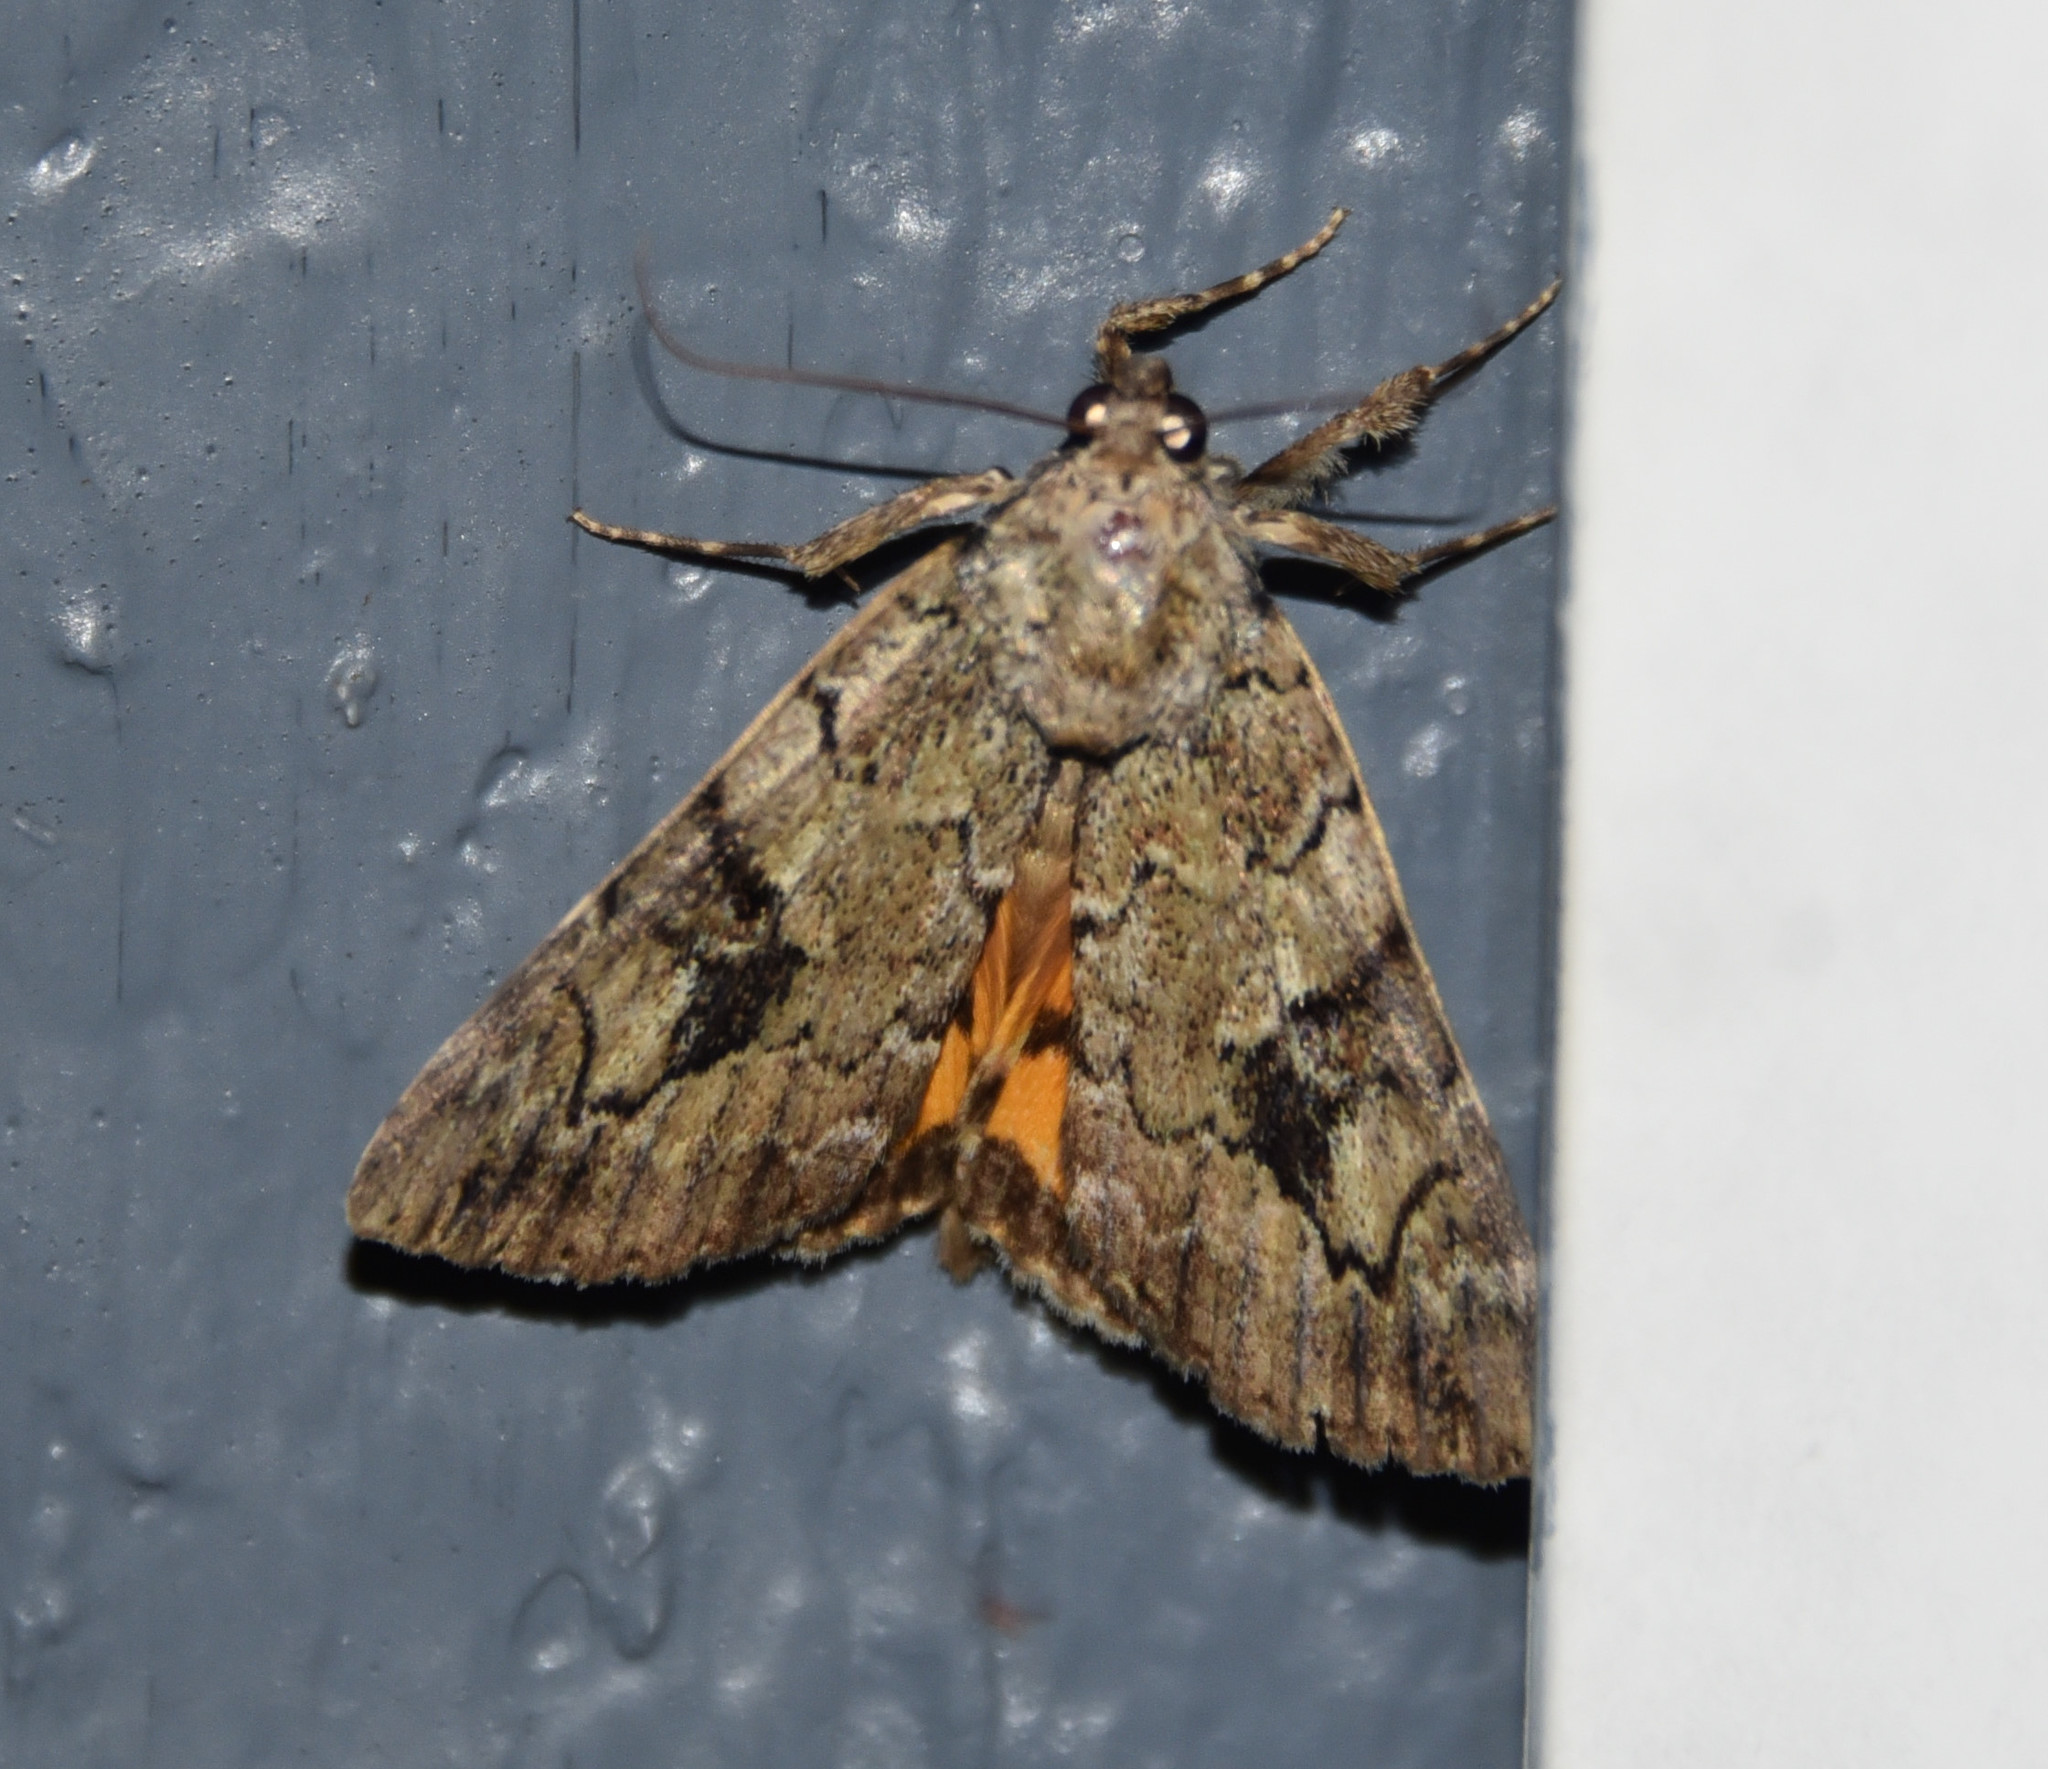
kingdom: Animalia
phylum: Arthropoda
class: Insecta
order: Lepidoptera
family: Erebidae
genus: Catocala
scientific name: Catocala micronympha
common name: Little nymph underwing
